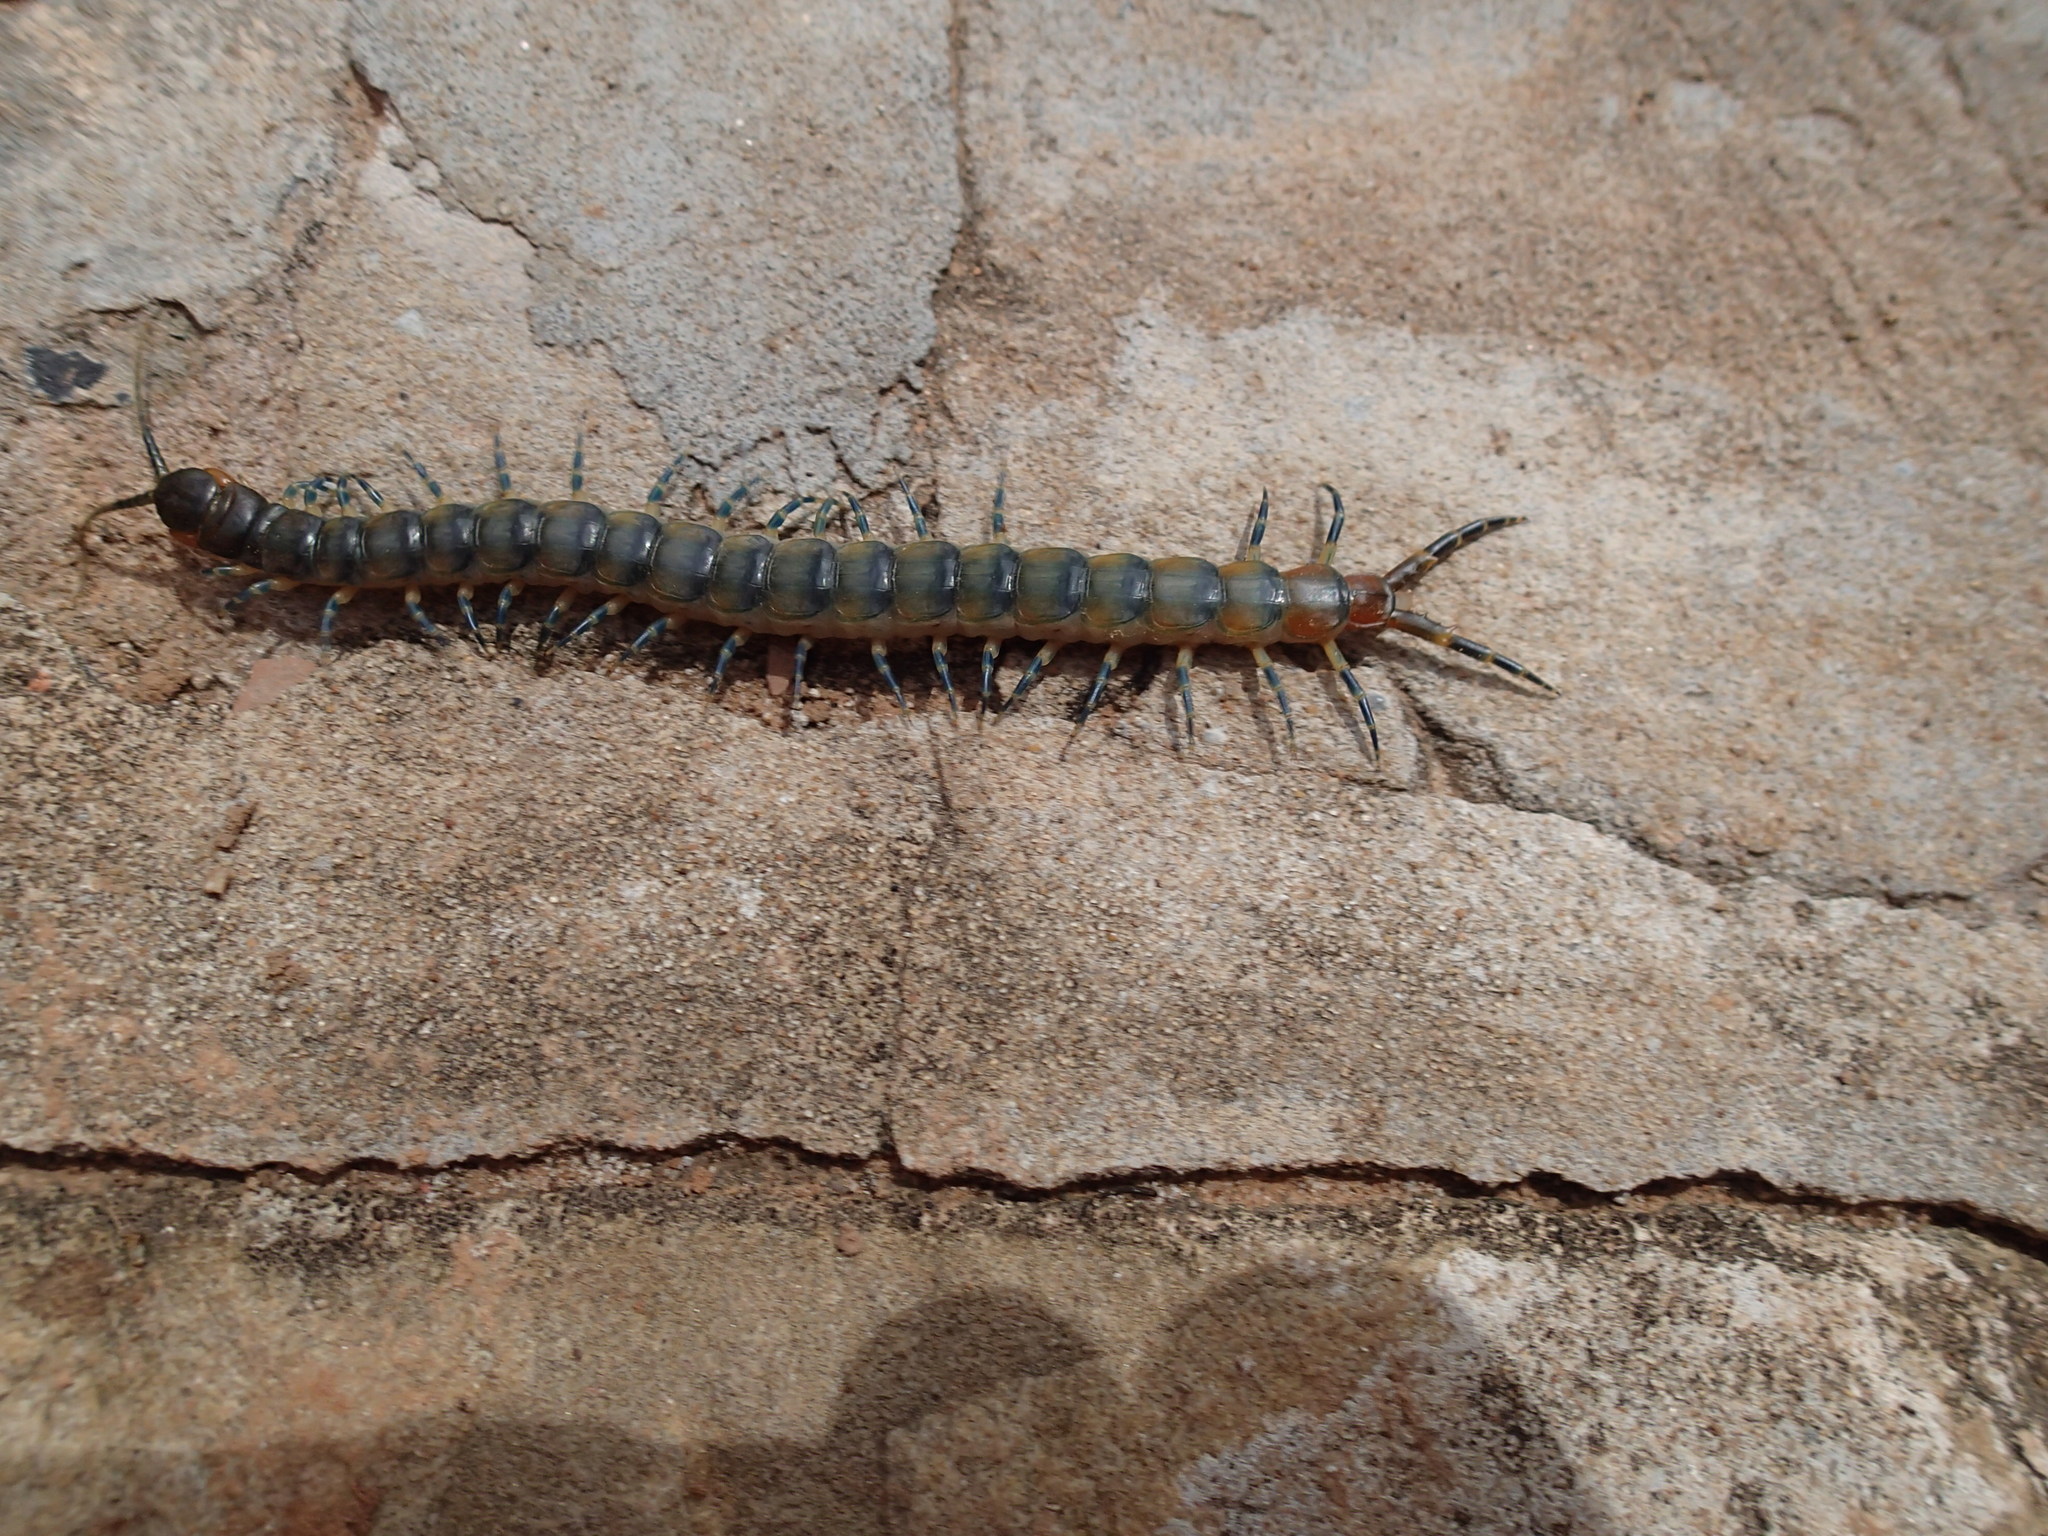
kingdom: Animalia
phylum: Arthropoda
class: Chilopoda
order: Scolopendromorpha
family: Scolopendridae
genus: Scolopendra
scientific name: Scolopendra viridicornis
